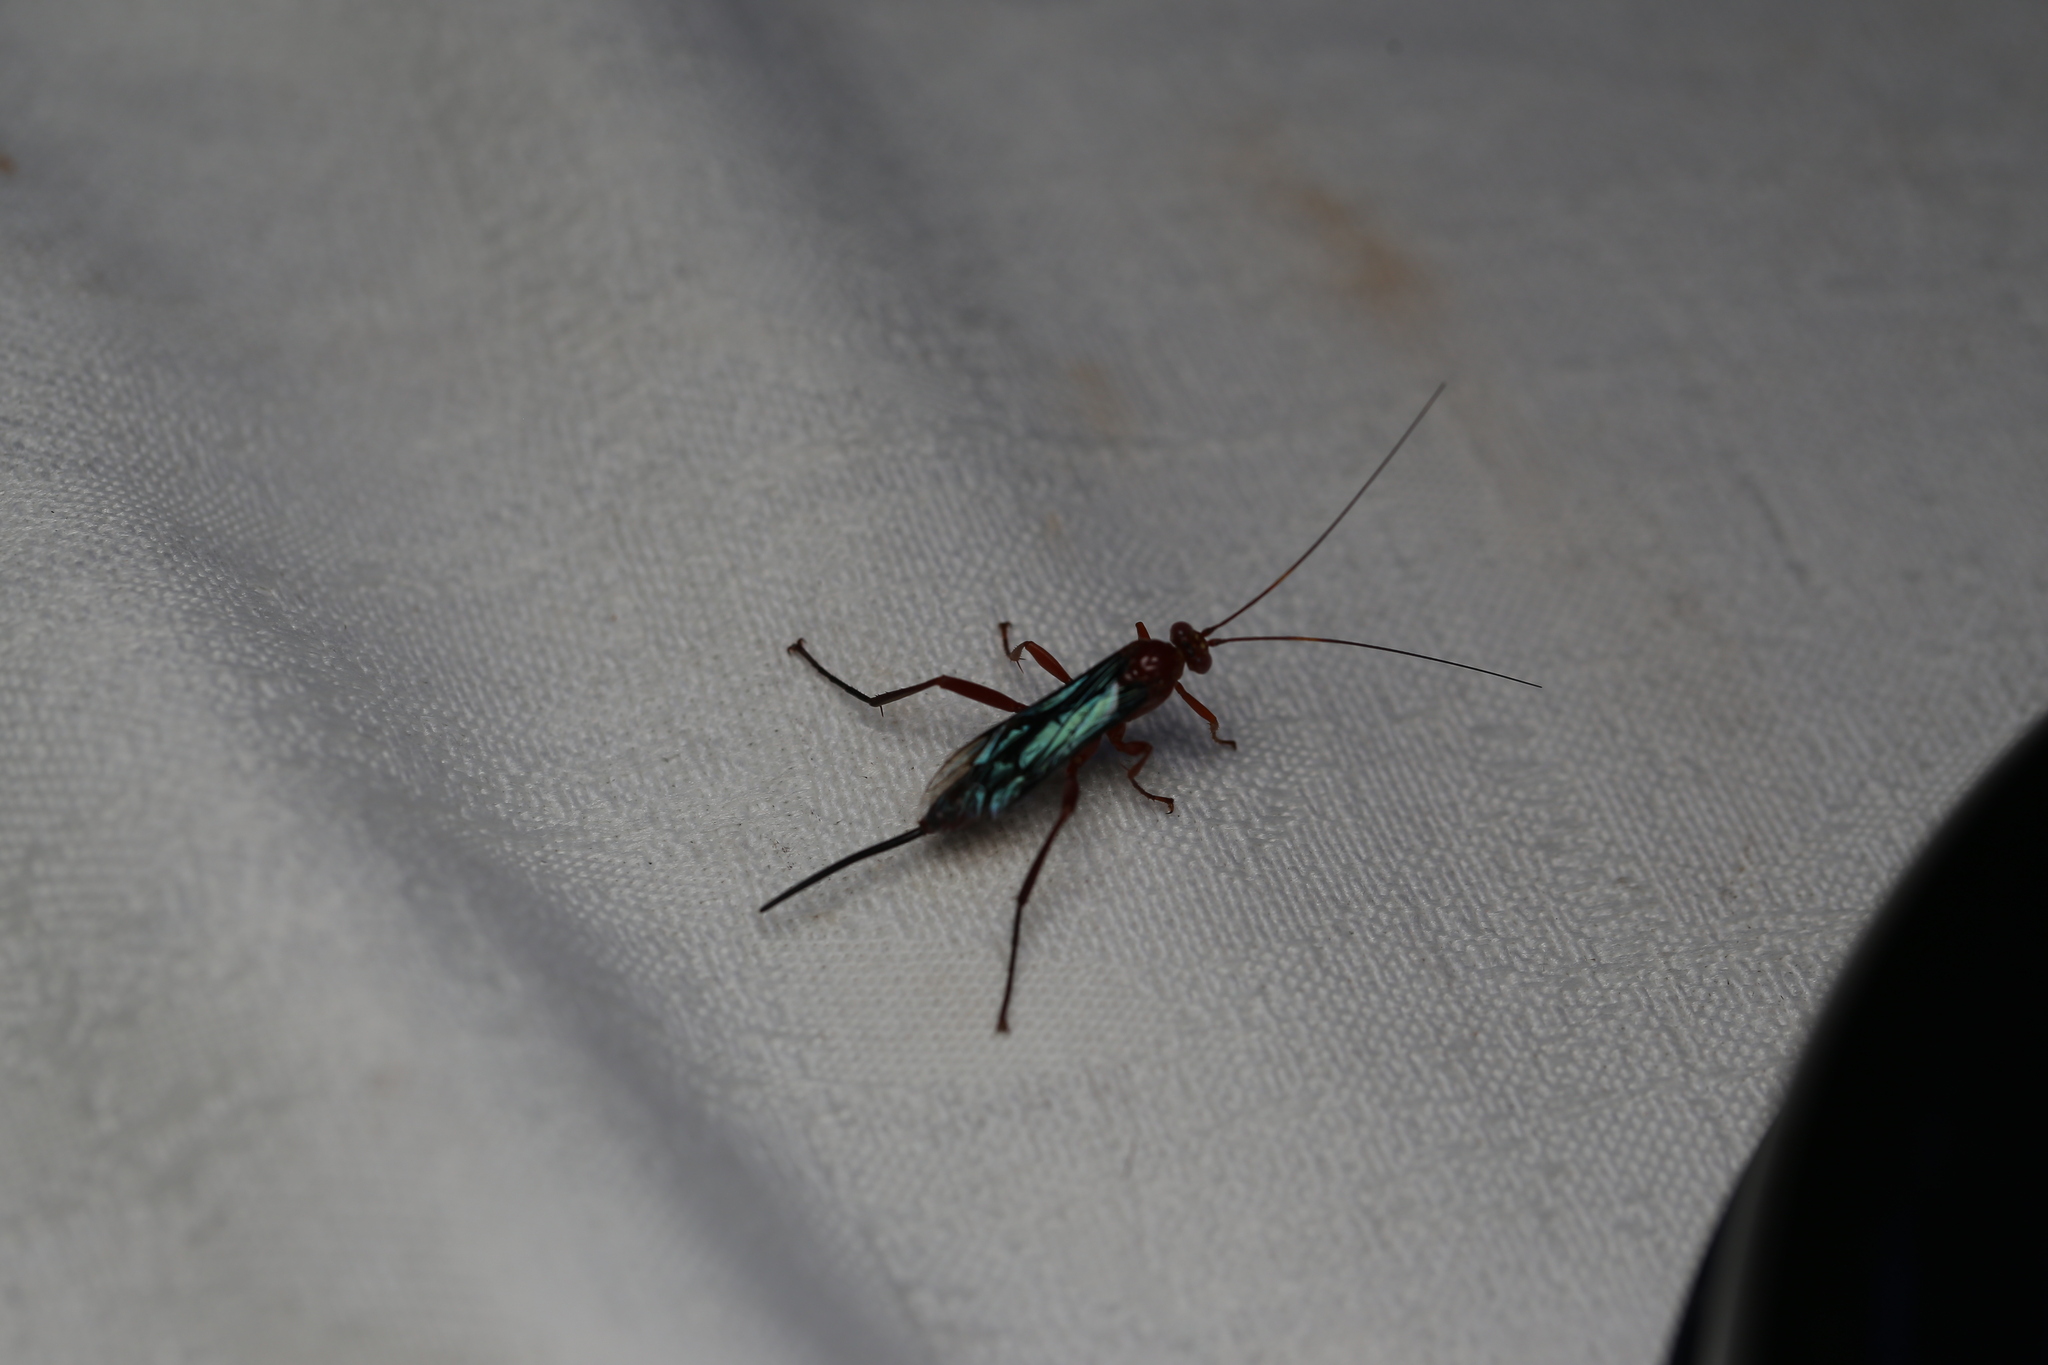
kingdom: Animalia
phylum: Arthropoda
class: Insecta
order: Hymenoptera
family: Ichneumonidae
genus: Lissopimpla
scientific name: Lissopimpla excelsa
